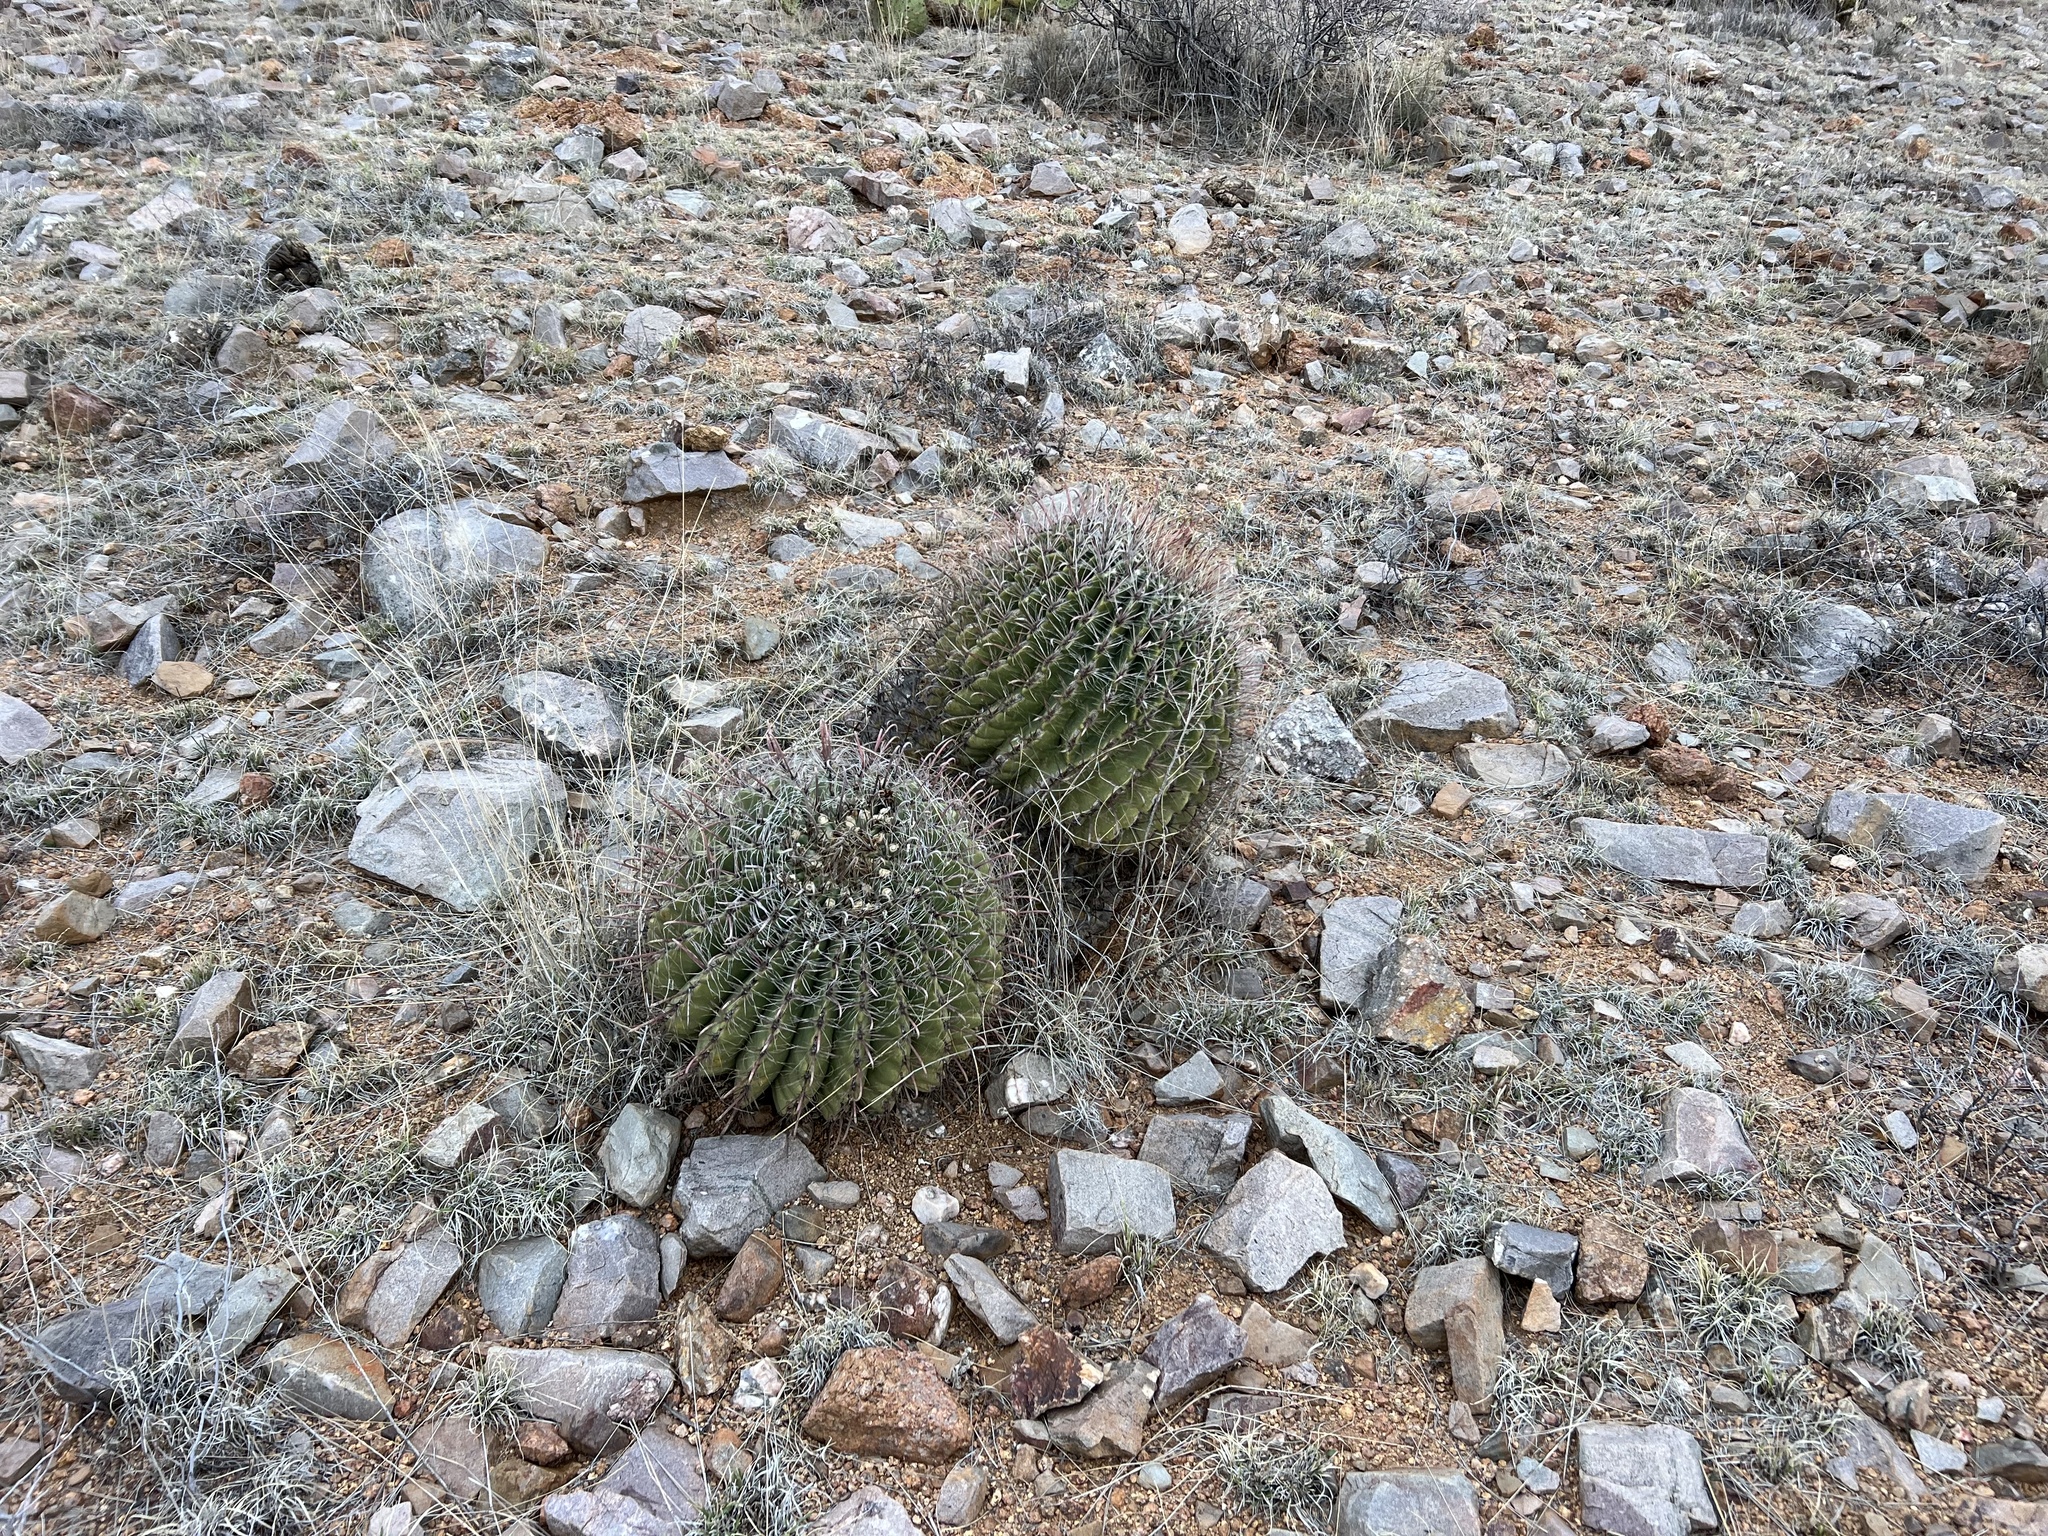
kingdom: Plantae
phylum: Tracheophyta
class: Magnoliopsida
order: Caryophyllales
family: Cactaceae
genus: Ferocactus
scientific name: Ferocactus wislizeni
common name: Candy barrel cactus
